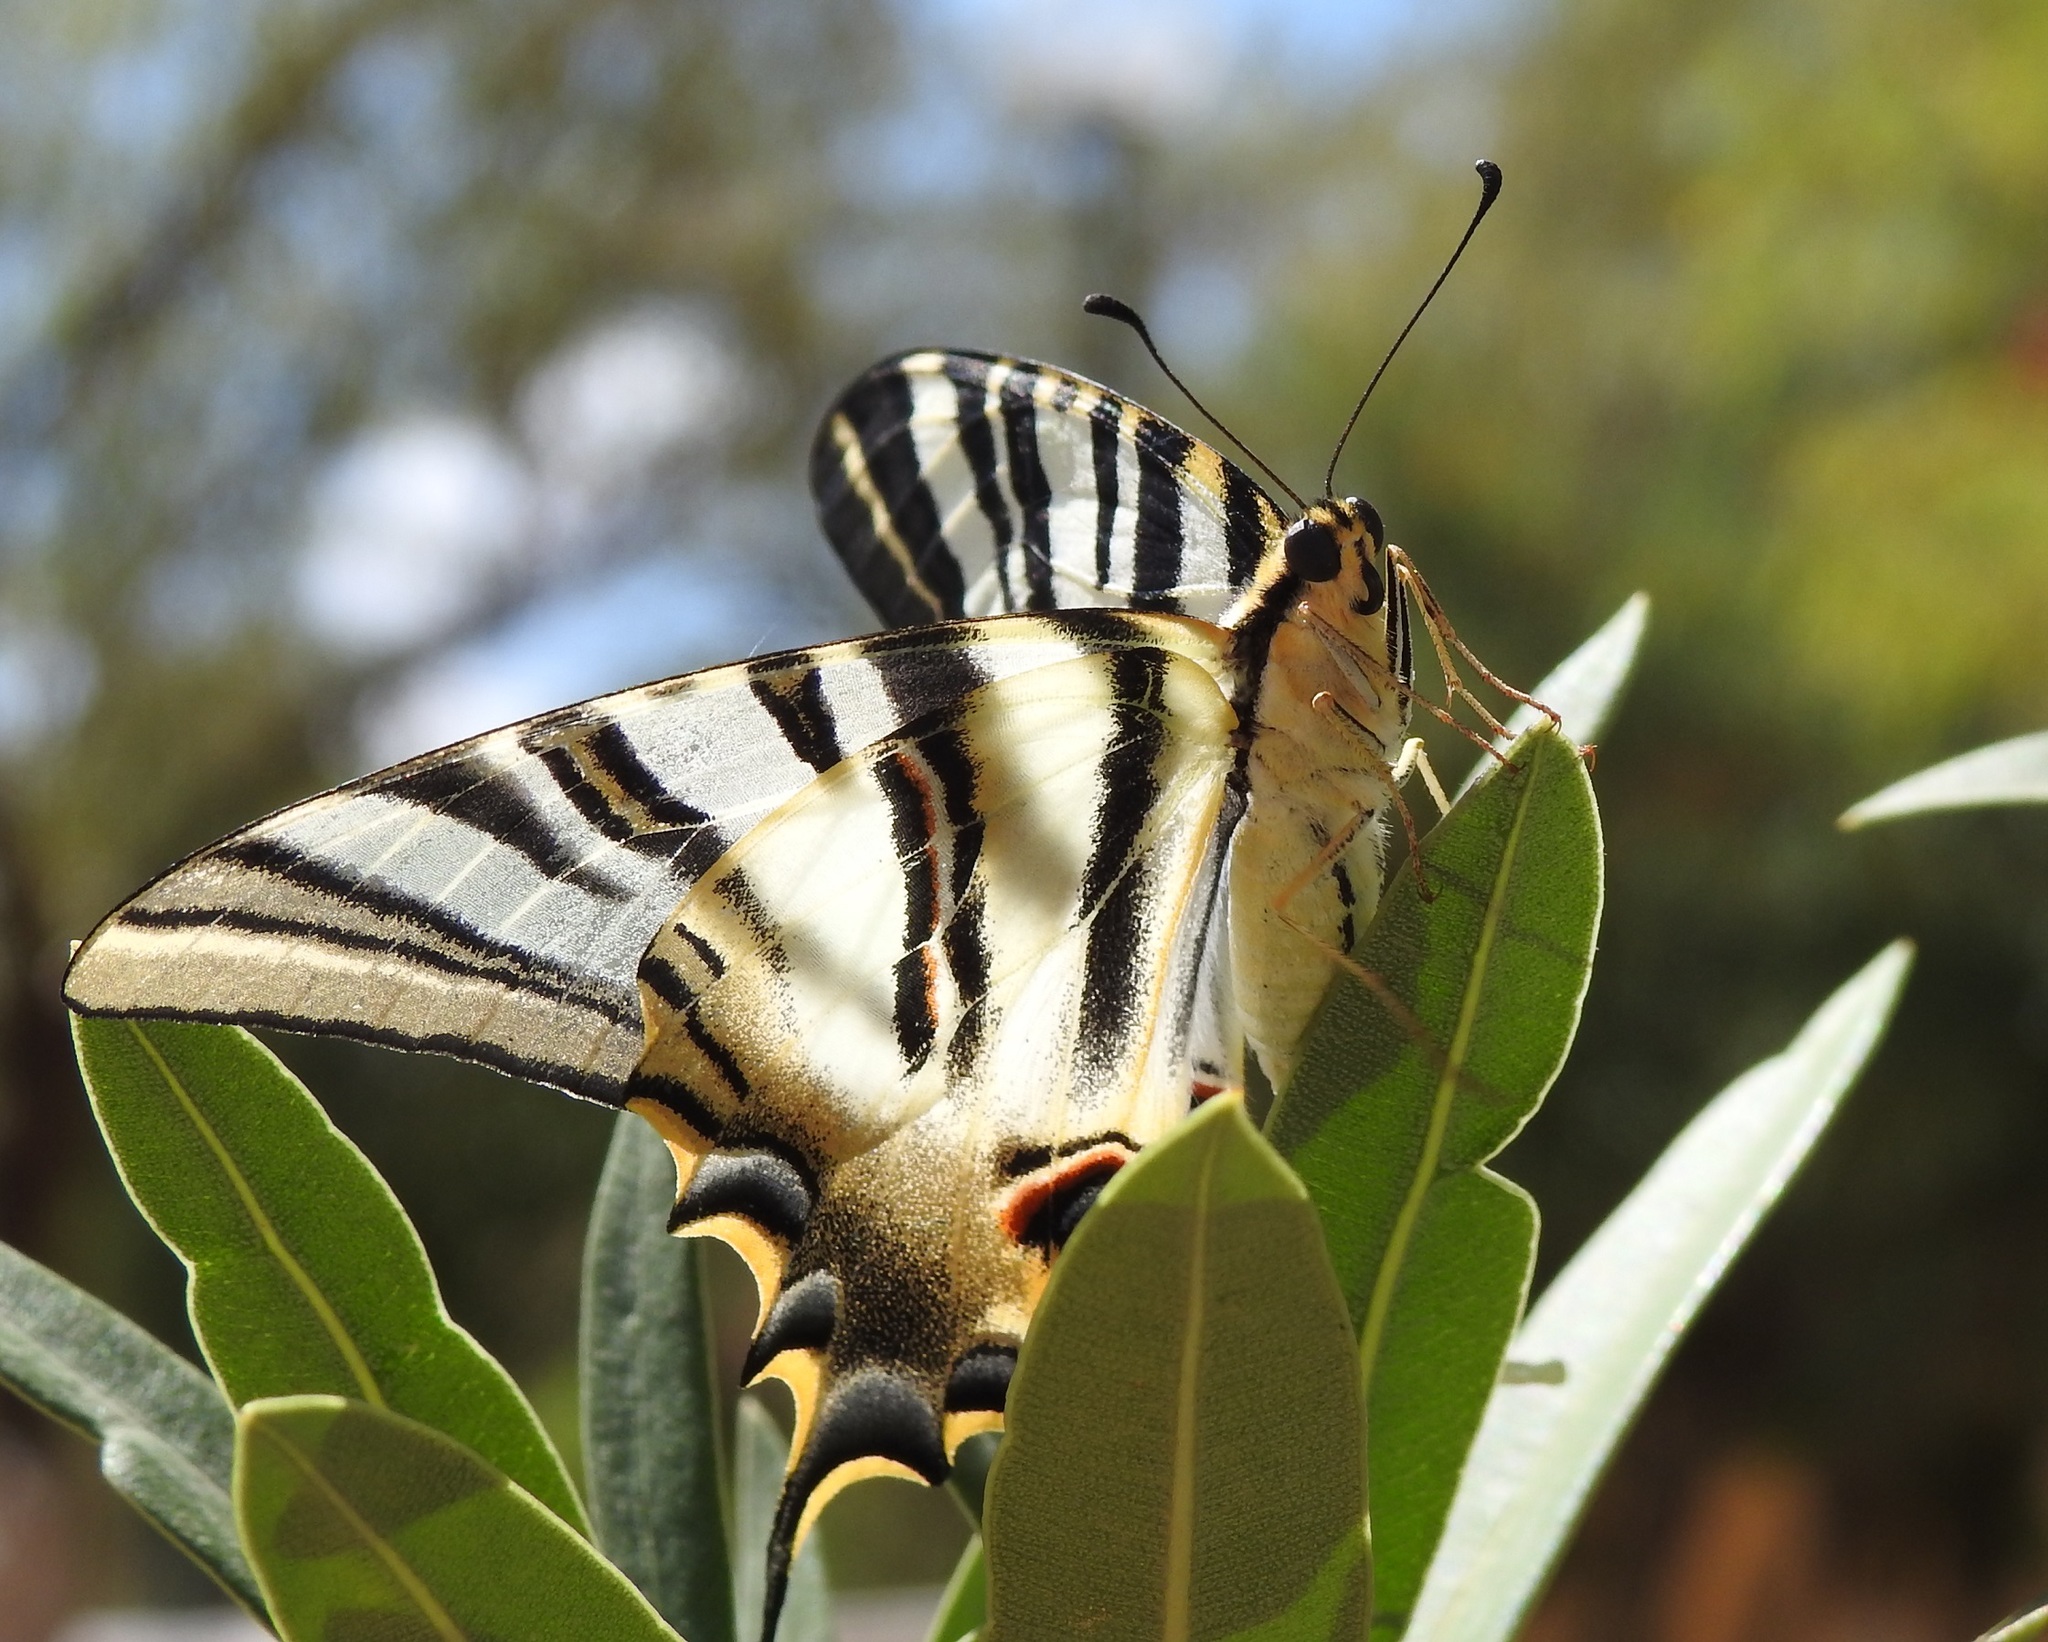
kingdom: Animalia
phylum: Arthropoda
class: Insecta
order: Lepidoptera
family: Papilionidae
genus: Iphiclides
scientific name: Iphiclides feisthamelii
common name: Iberian scarce swallowtail
